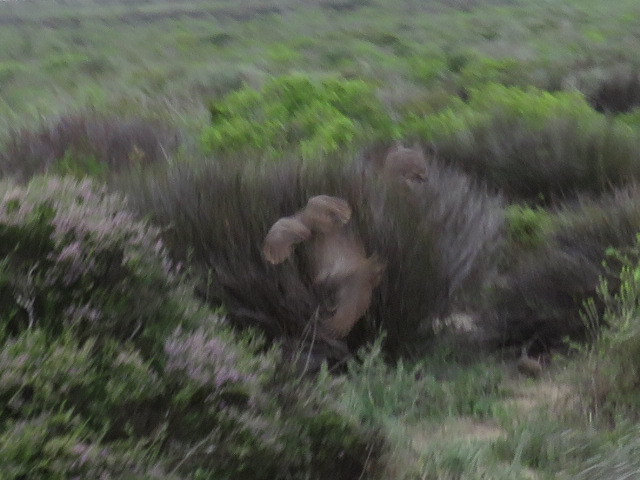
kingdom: Animalia
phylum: Chordata
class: Aves
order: Galliformes
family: Phasianidae
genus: Pternistis
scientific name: Pternistis capensis
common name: Cape spurfowl
